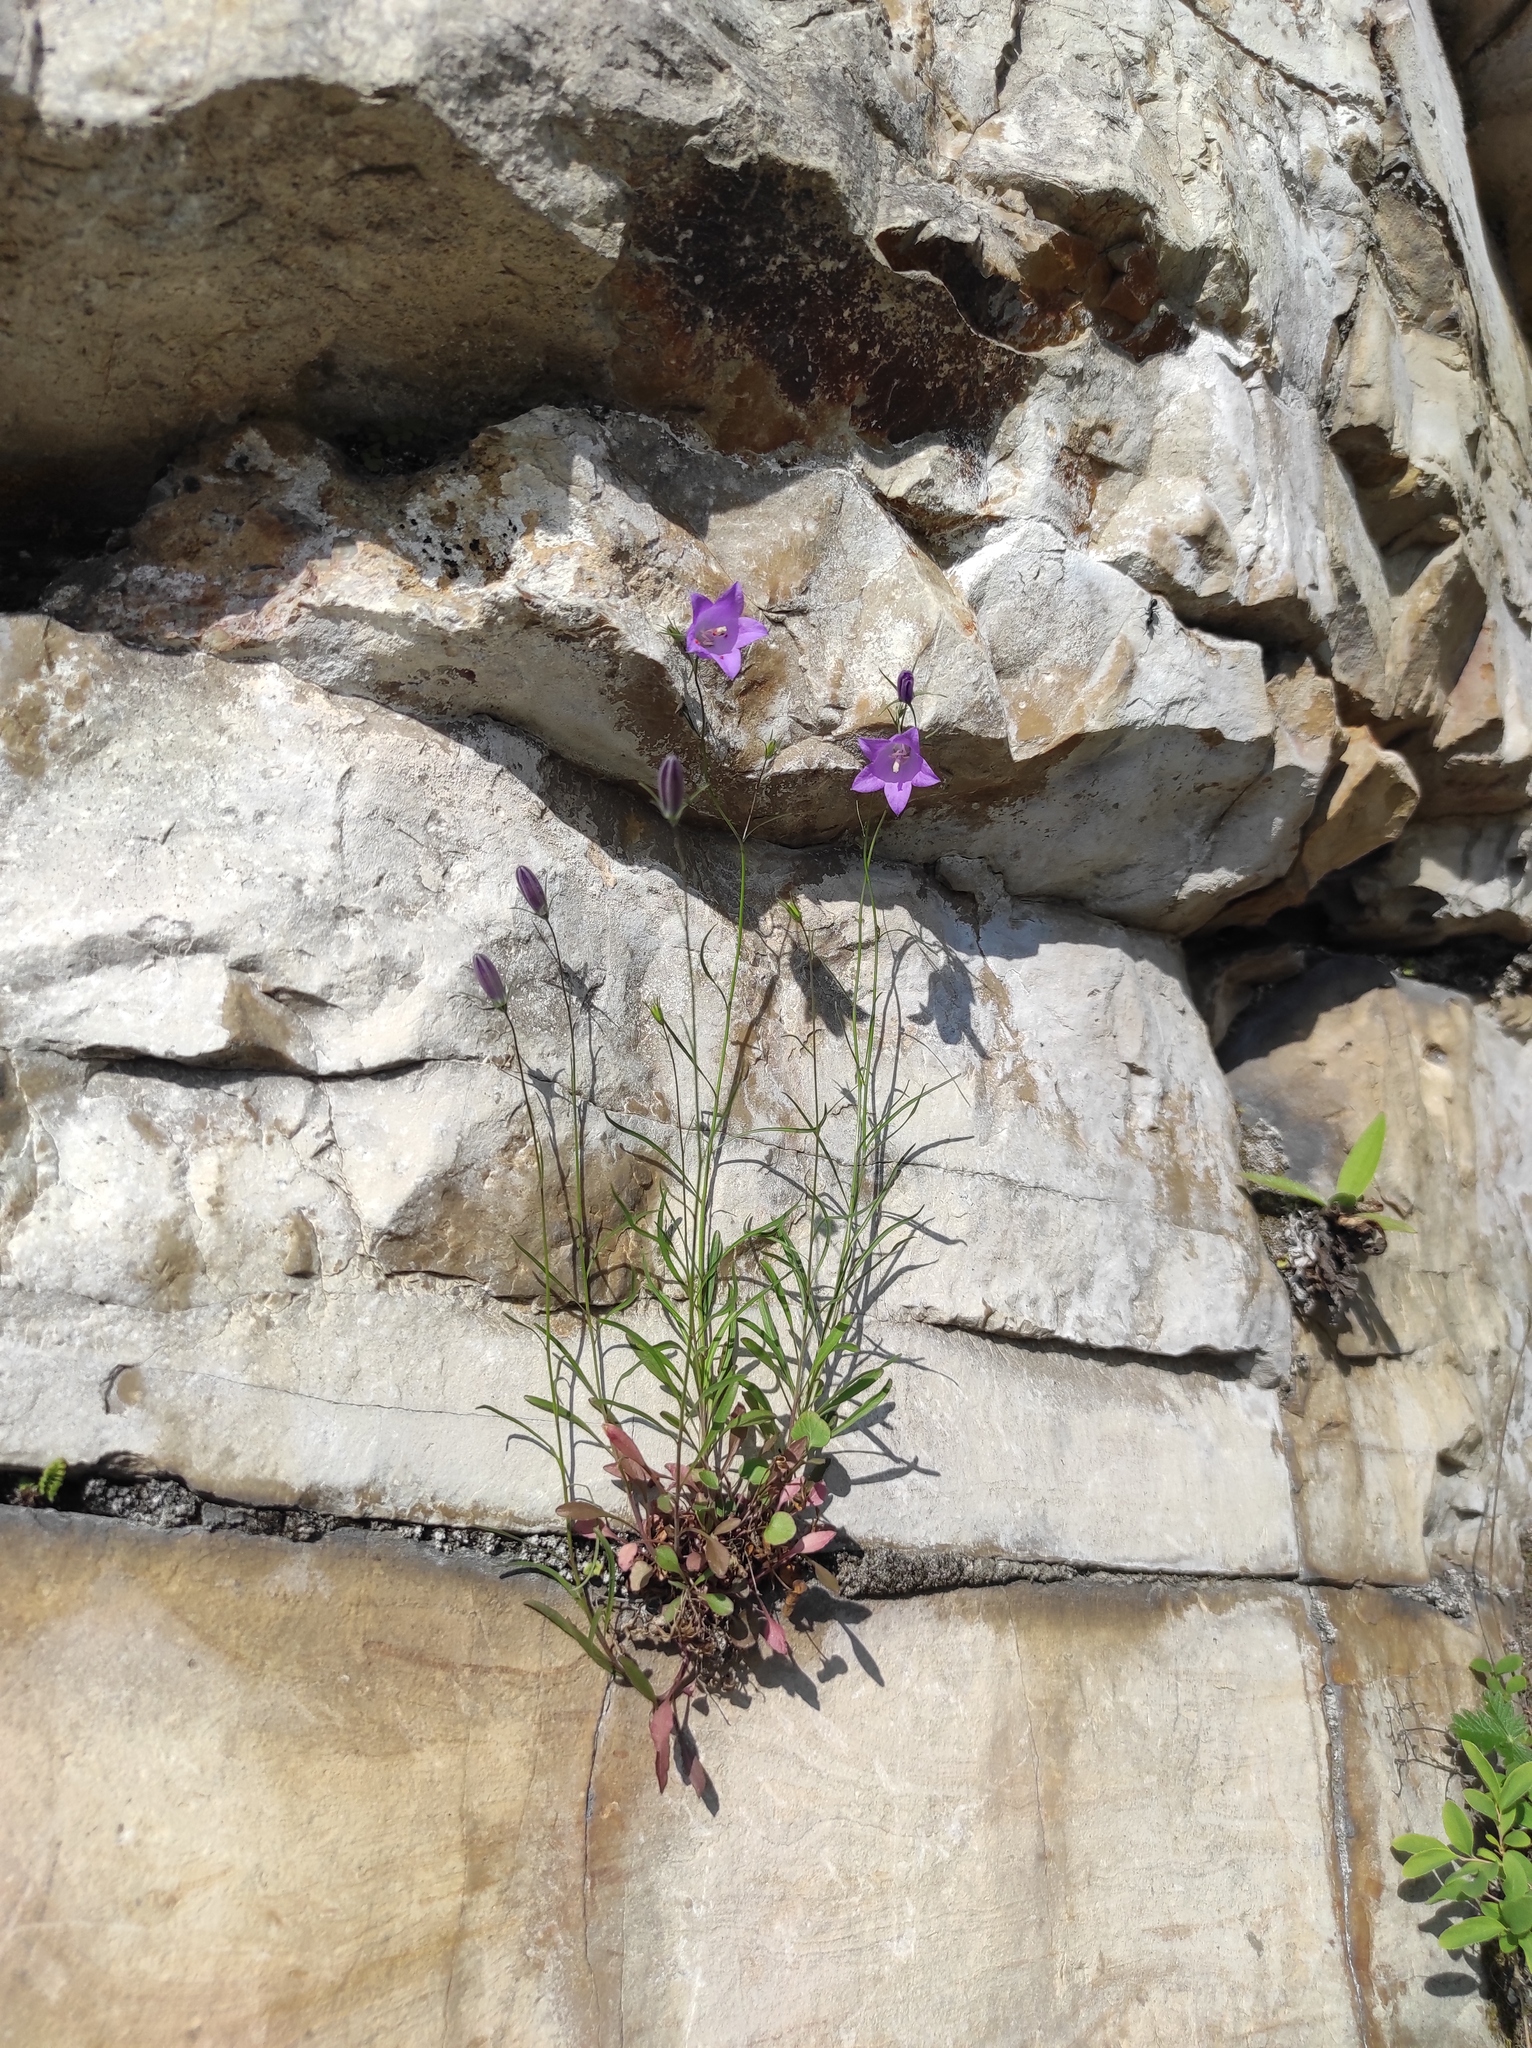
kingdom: Plantae
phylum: Tracheophyta
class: Magnoliopsida
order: Asterales
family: Campanulaceae
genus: Campanula
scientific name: Campanula rotundifolia
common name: Harebell
